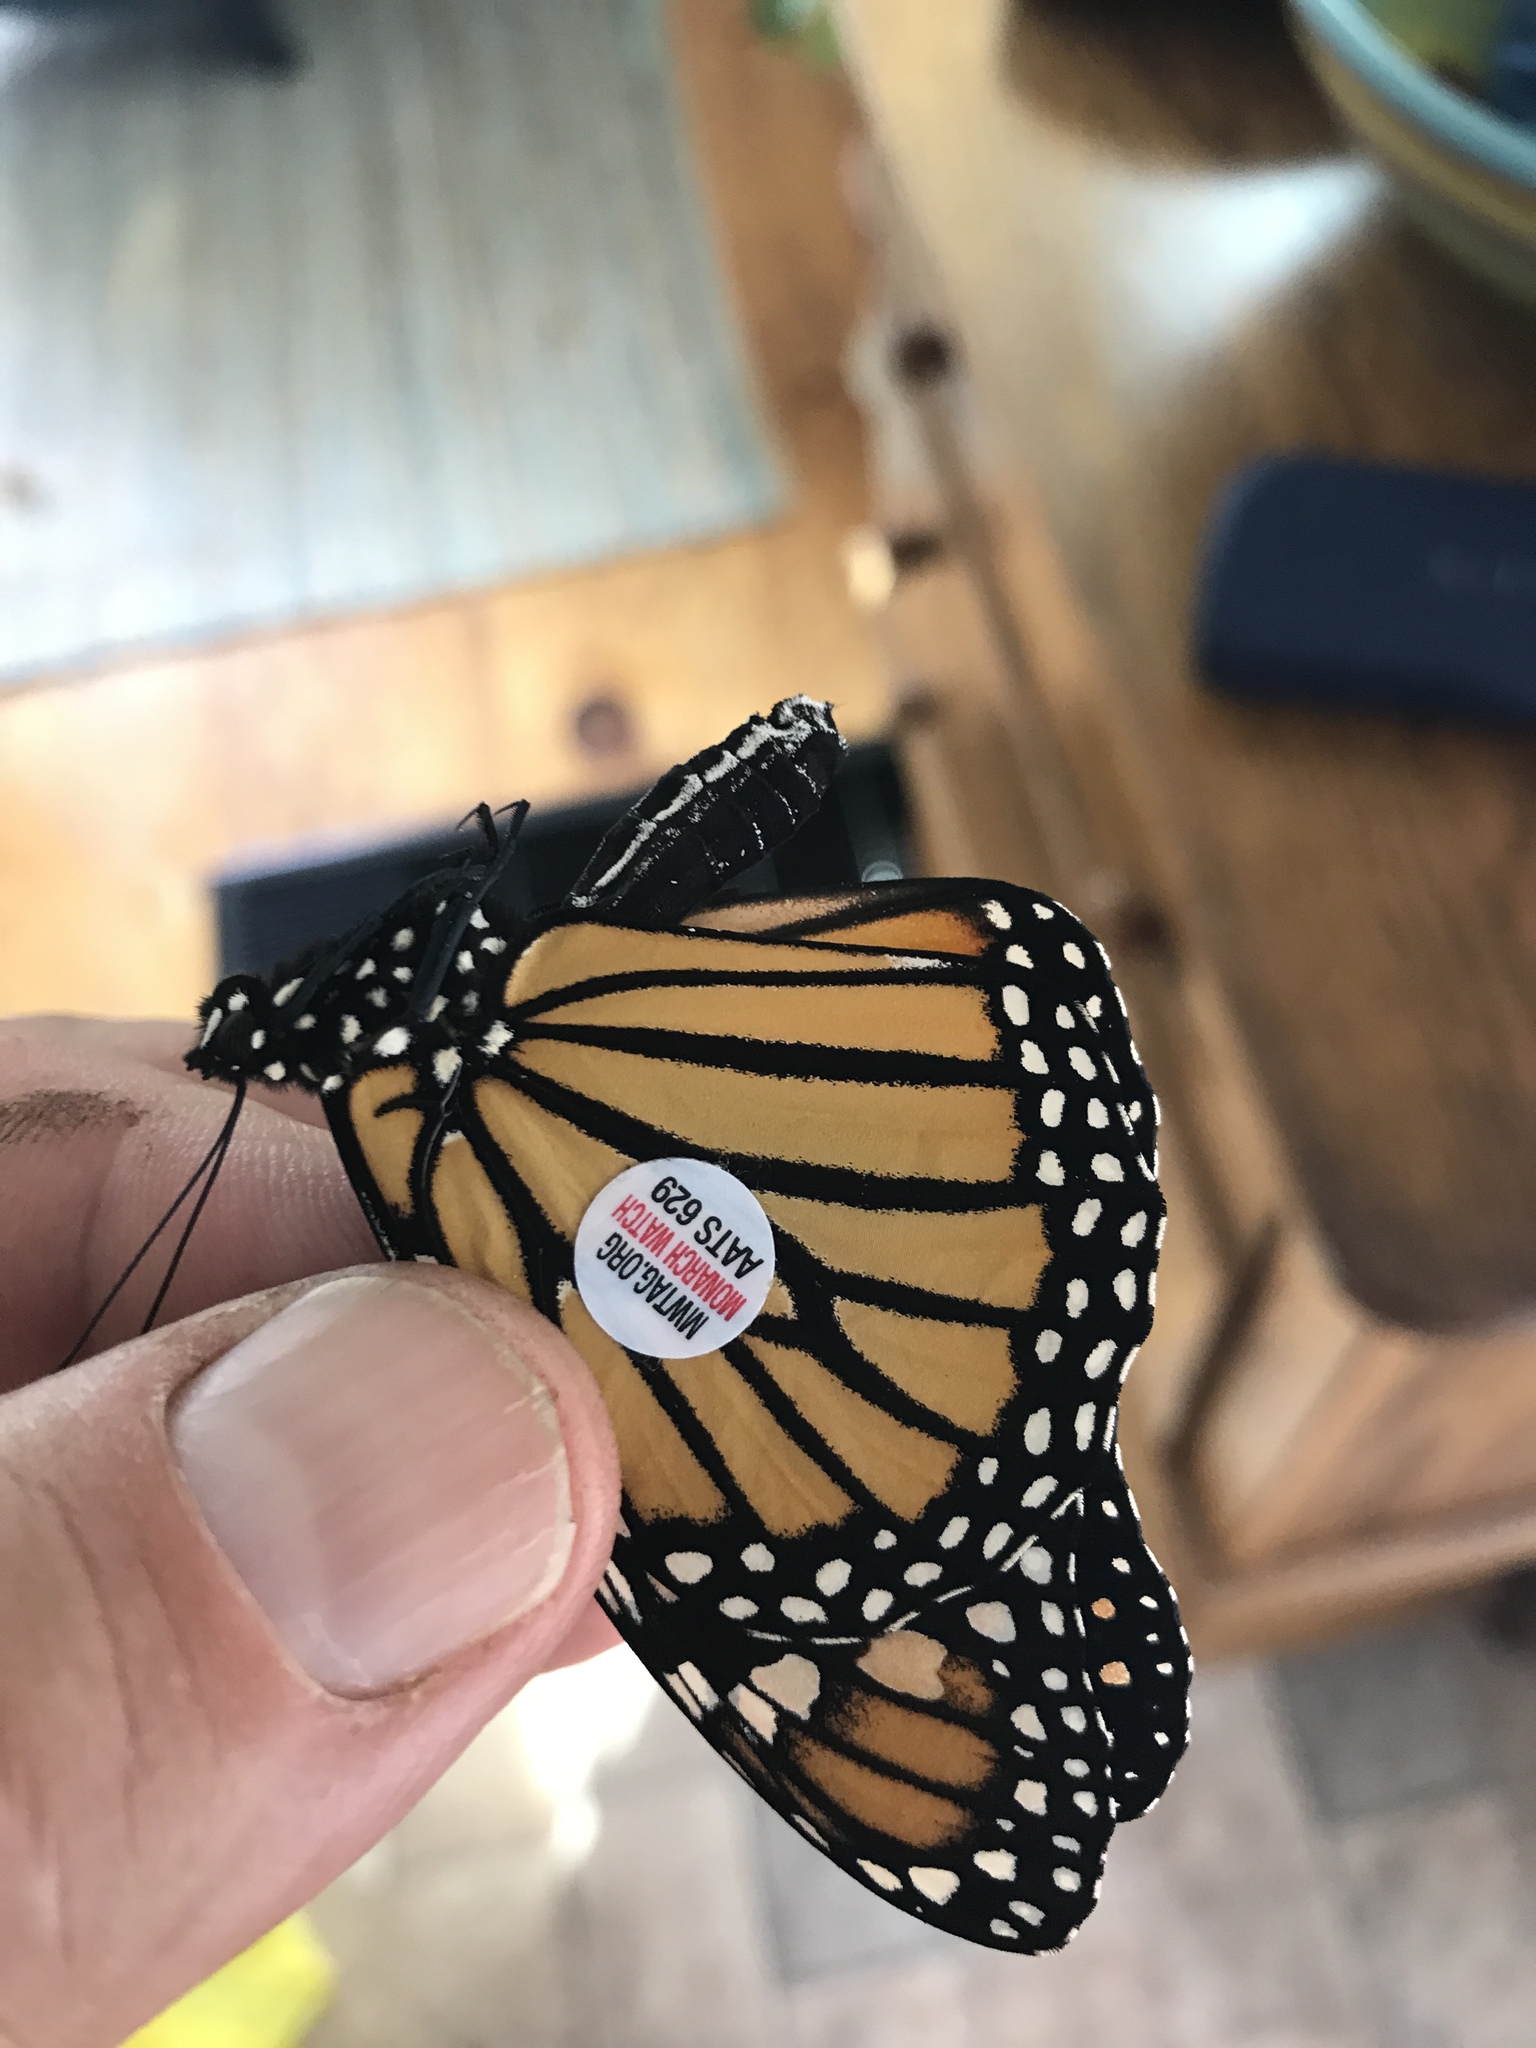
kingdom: Animalia
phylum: Arthropoda
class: Insecta
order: Lepidoptera
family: Nymphalidae
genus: Danaus
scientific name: Danaus plexippus
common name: Monarch
